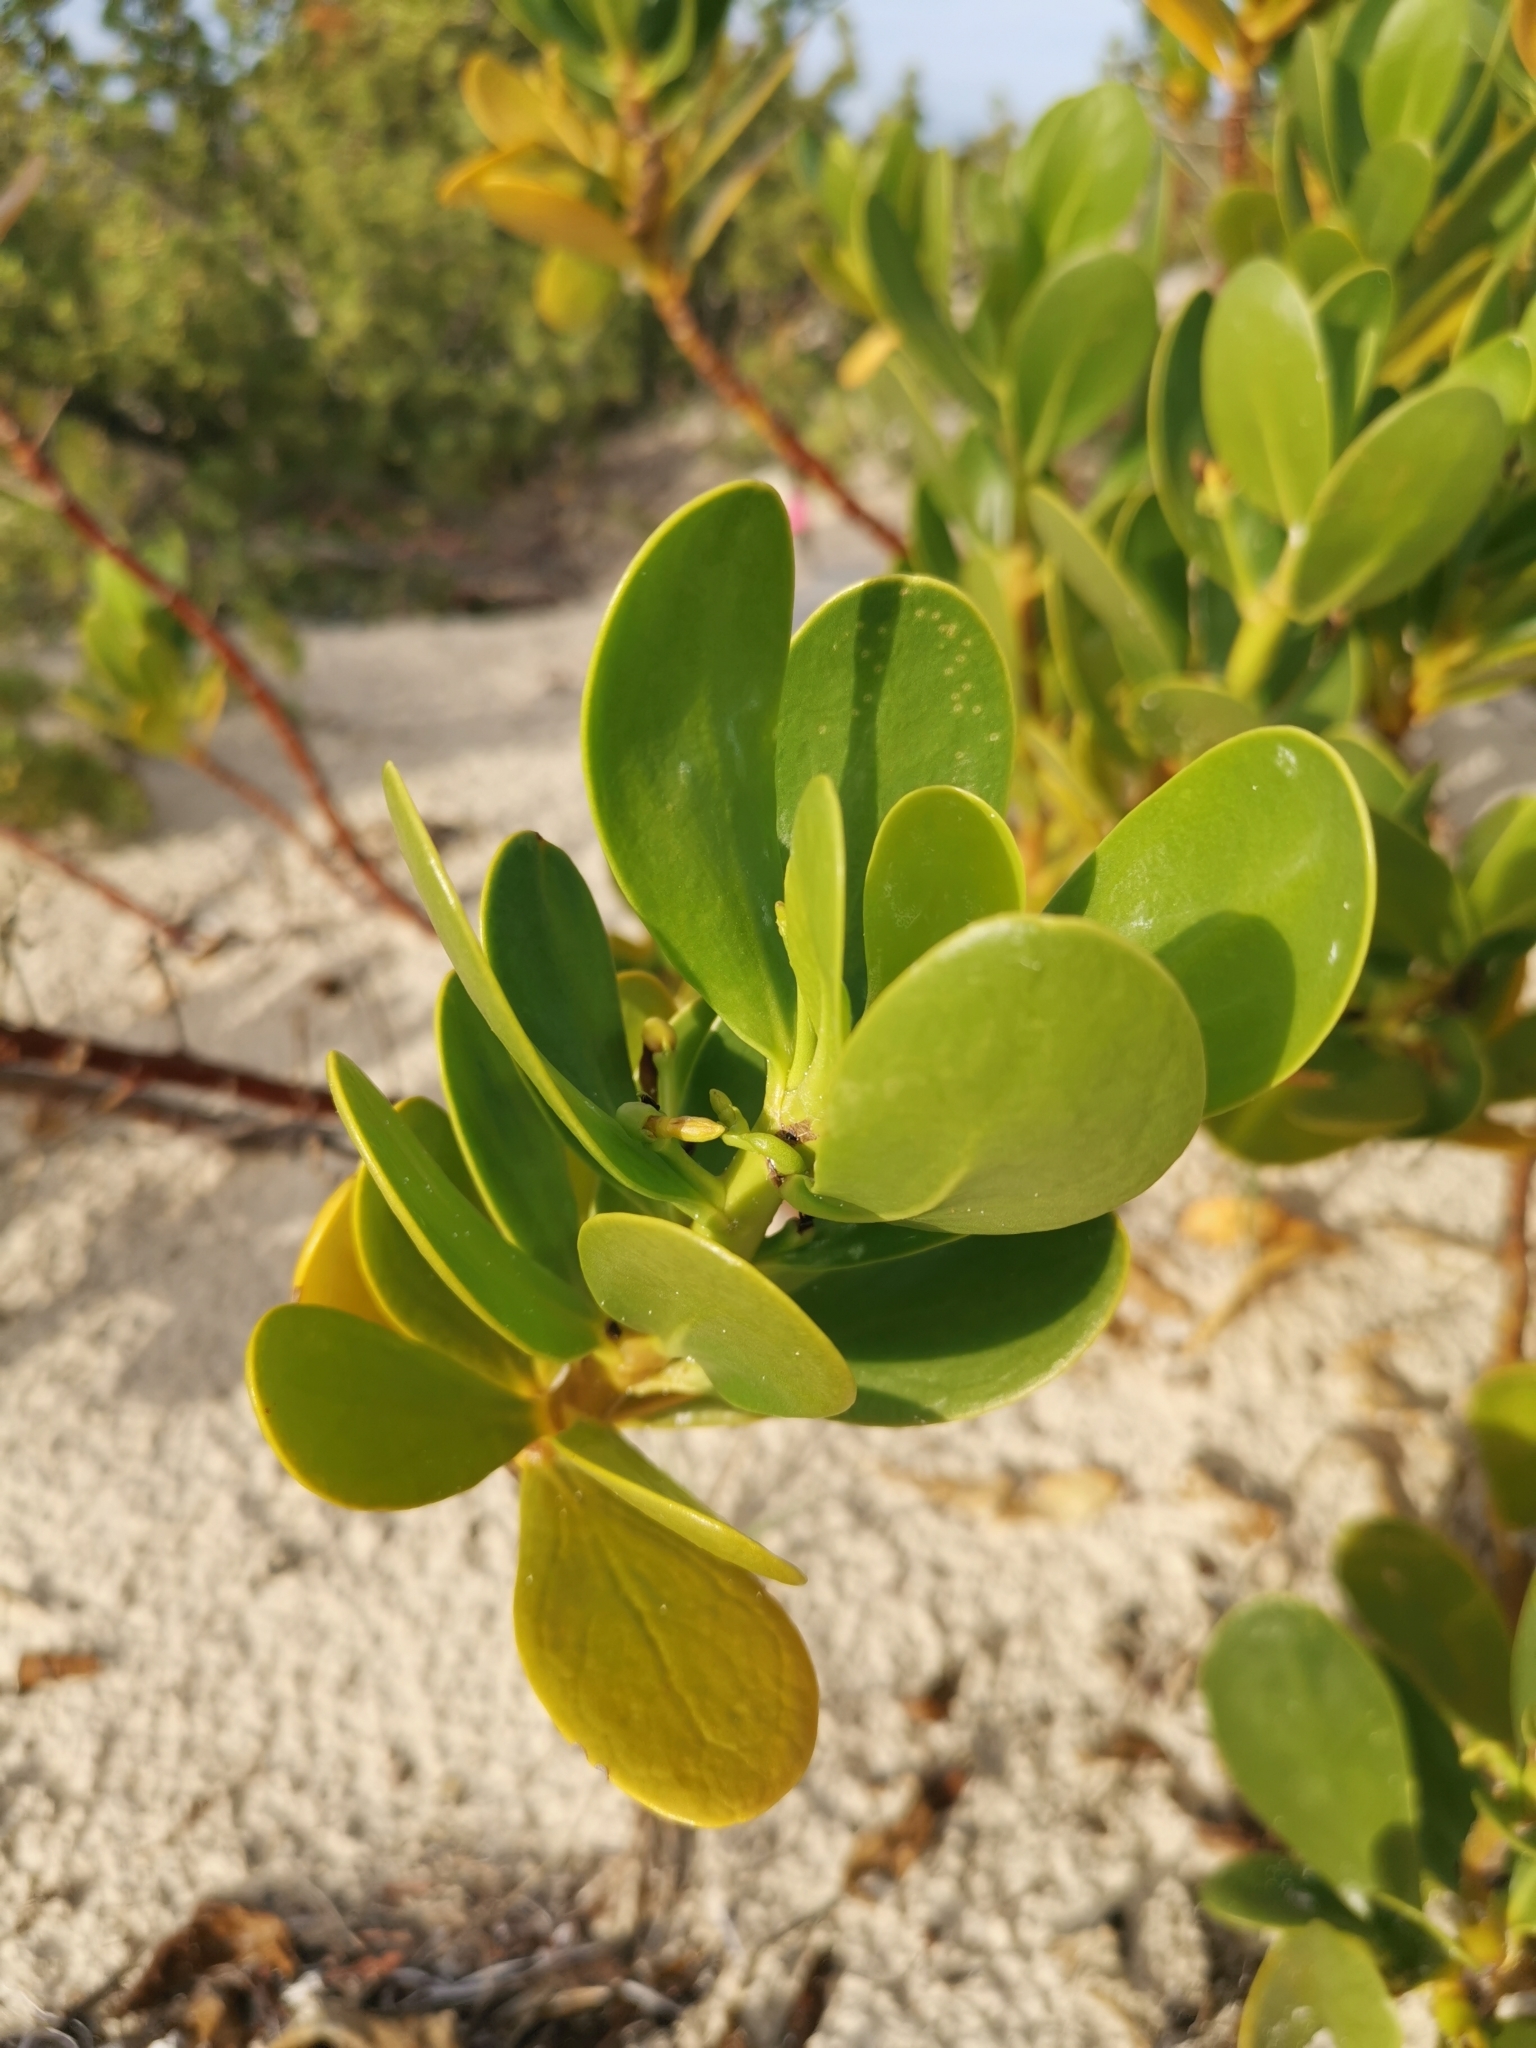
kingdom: Plantae
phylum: Tracheophyta
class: Magnoliopsida
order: Asterales
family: Goodeniaceae
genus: Scaevola
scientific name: Scaevola plumieri
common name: Gull feed
